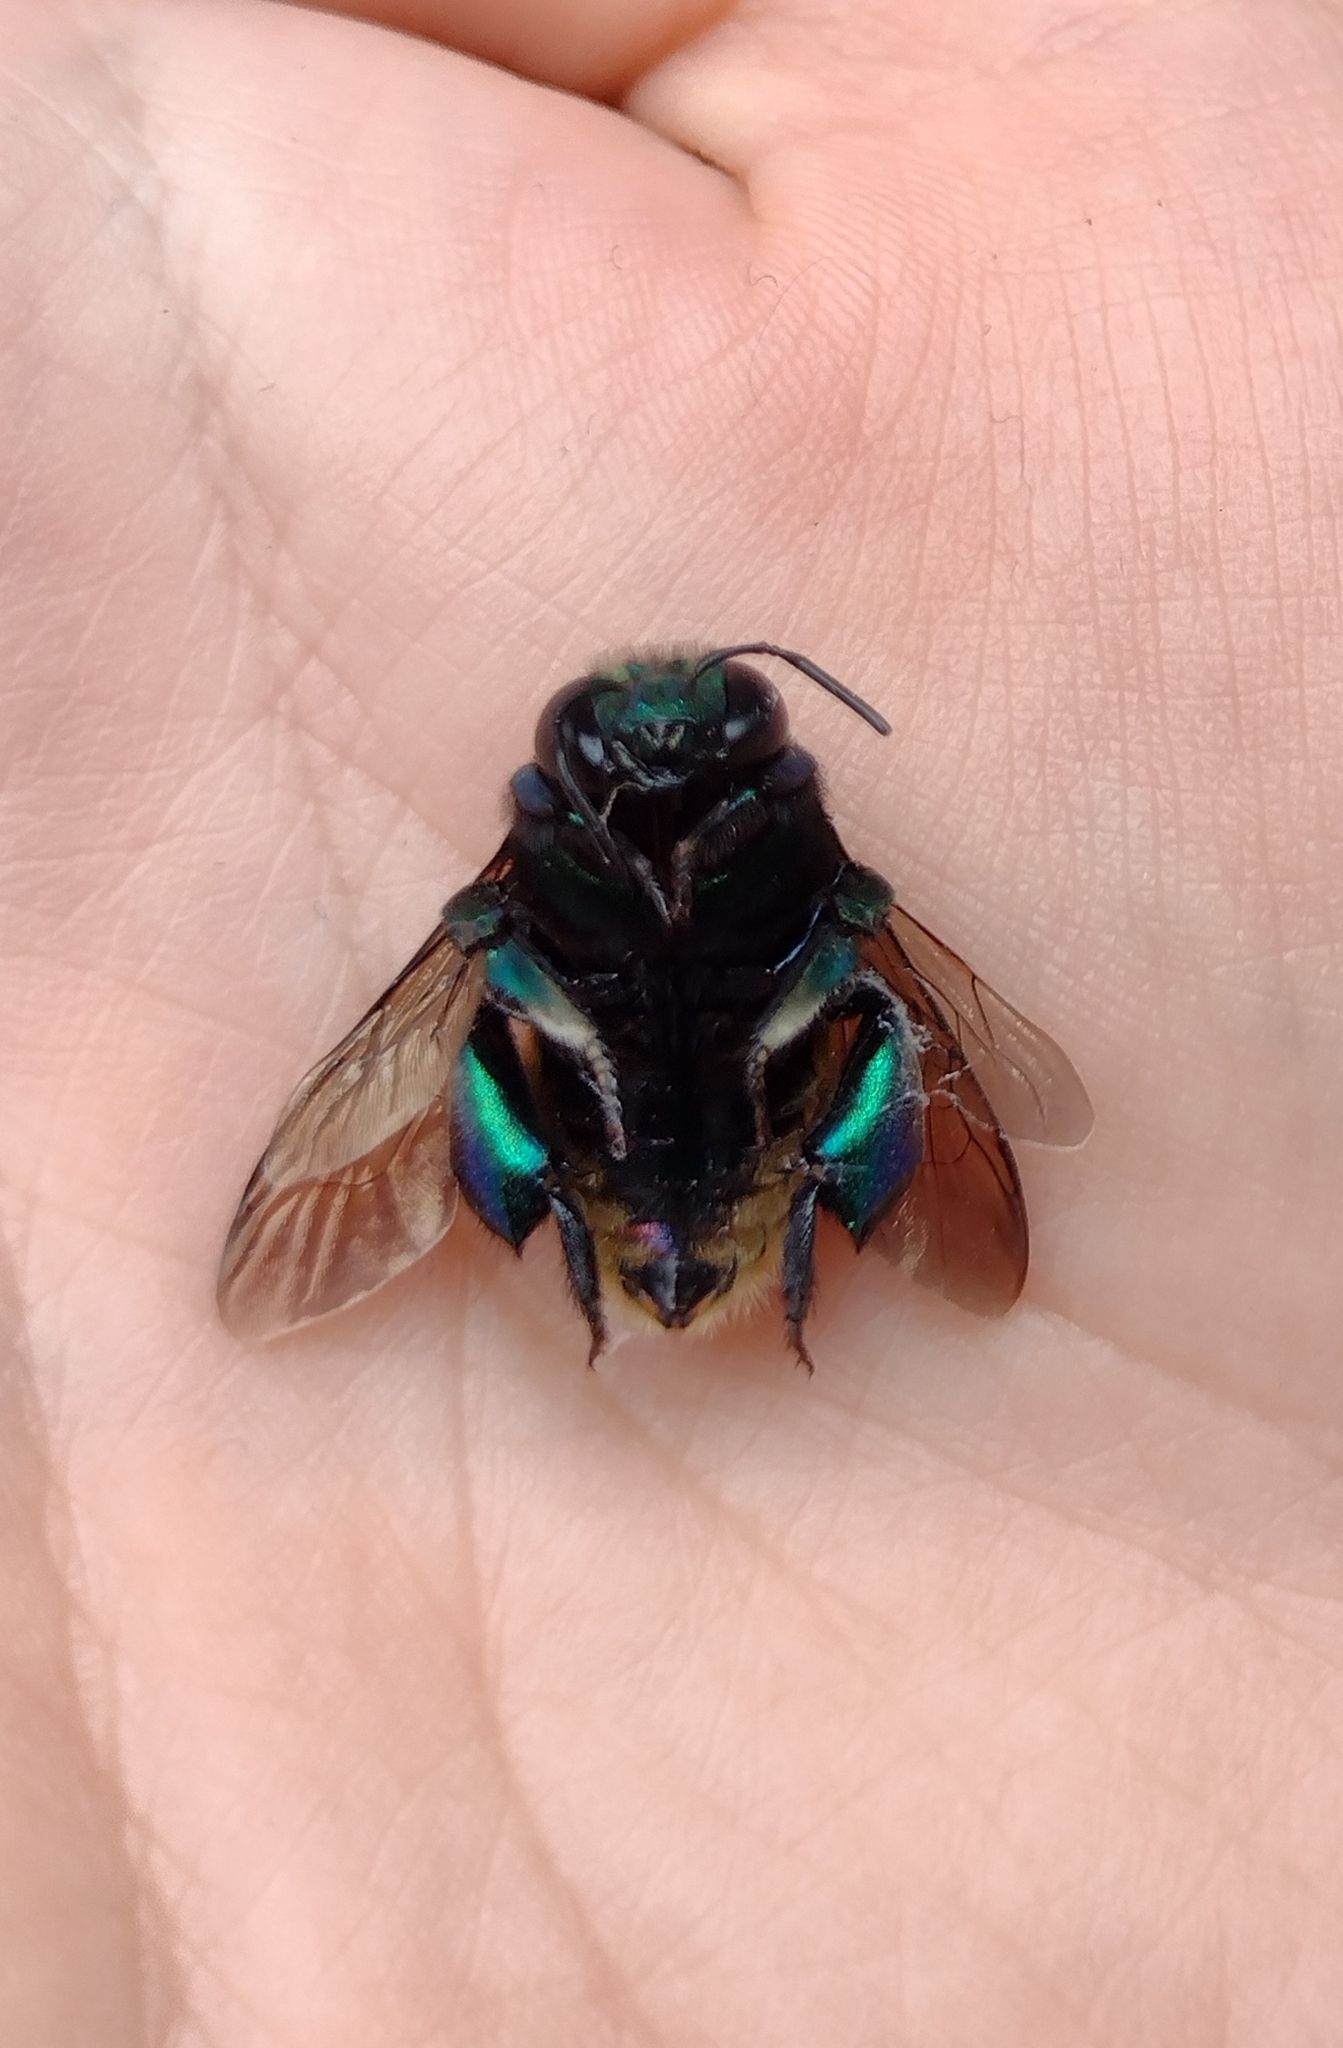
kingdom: Animalia
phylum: Arthropoda
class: Insecta
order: Hymenoptera
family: Apidae
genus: Eufriesea
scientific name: Eufriesea mariana
